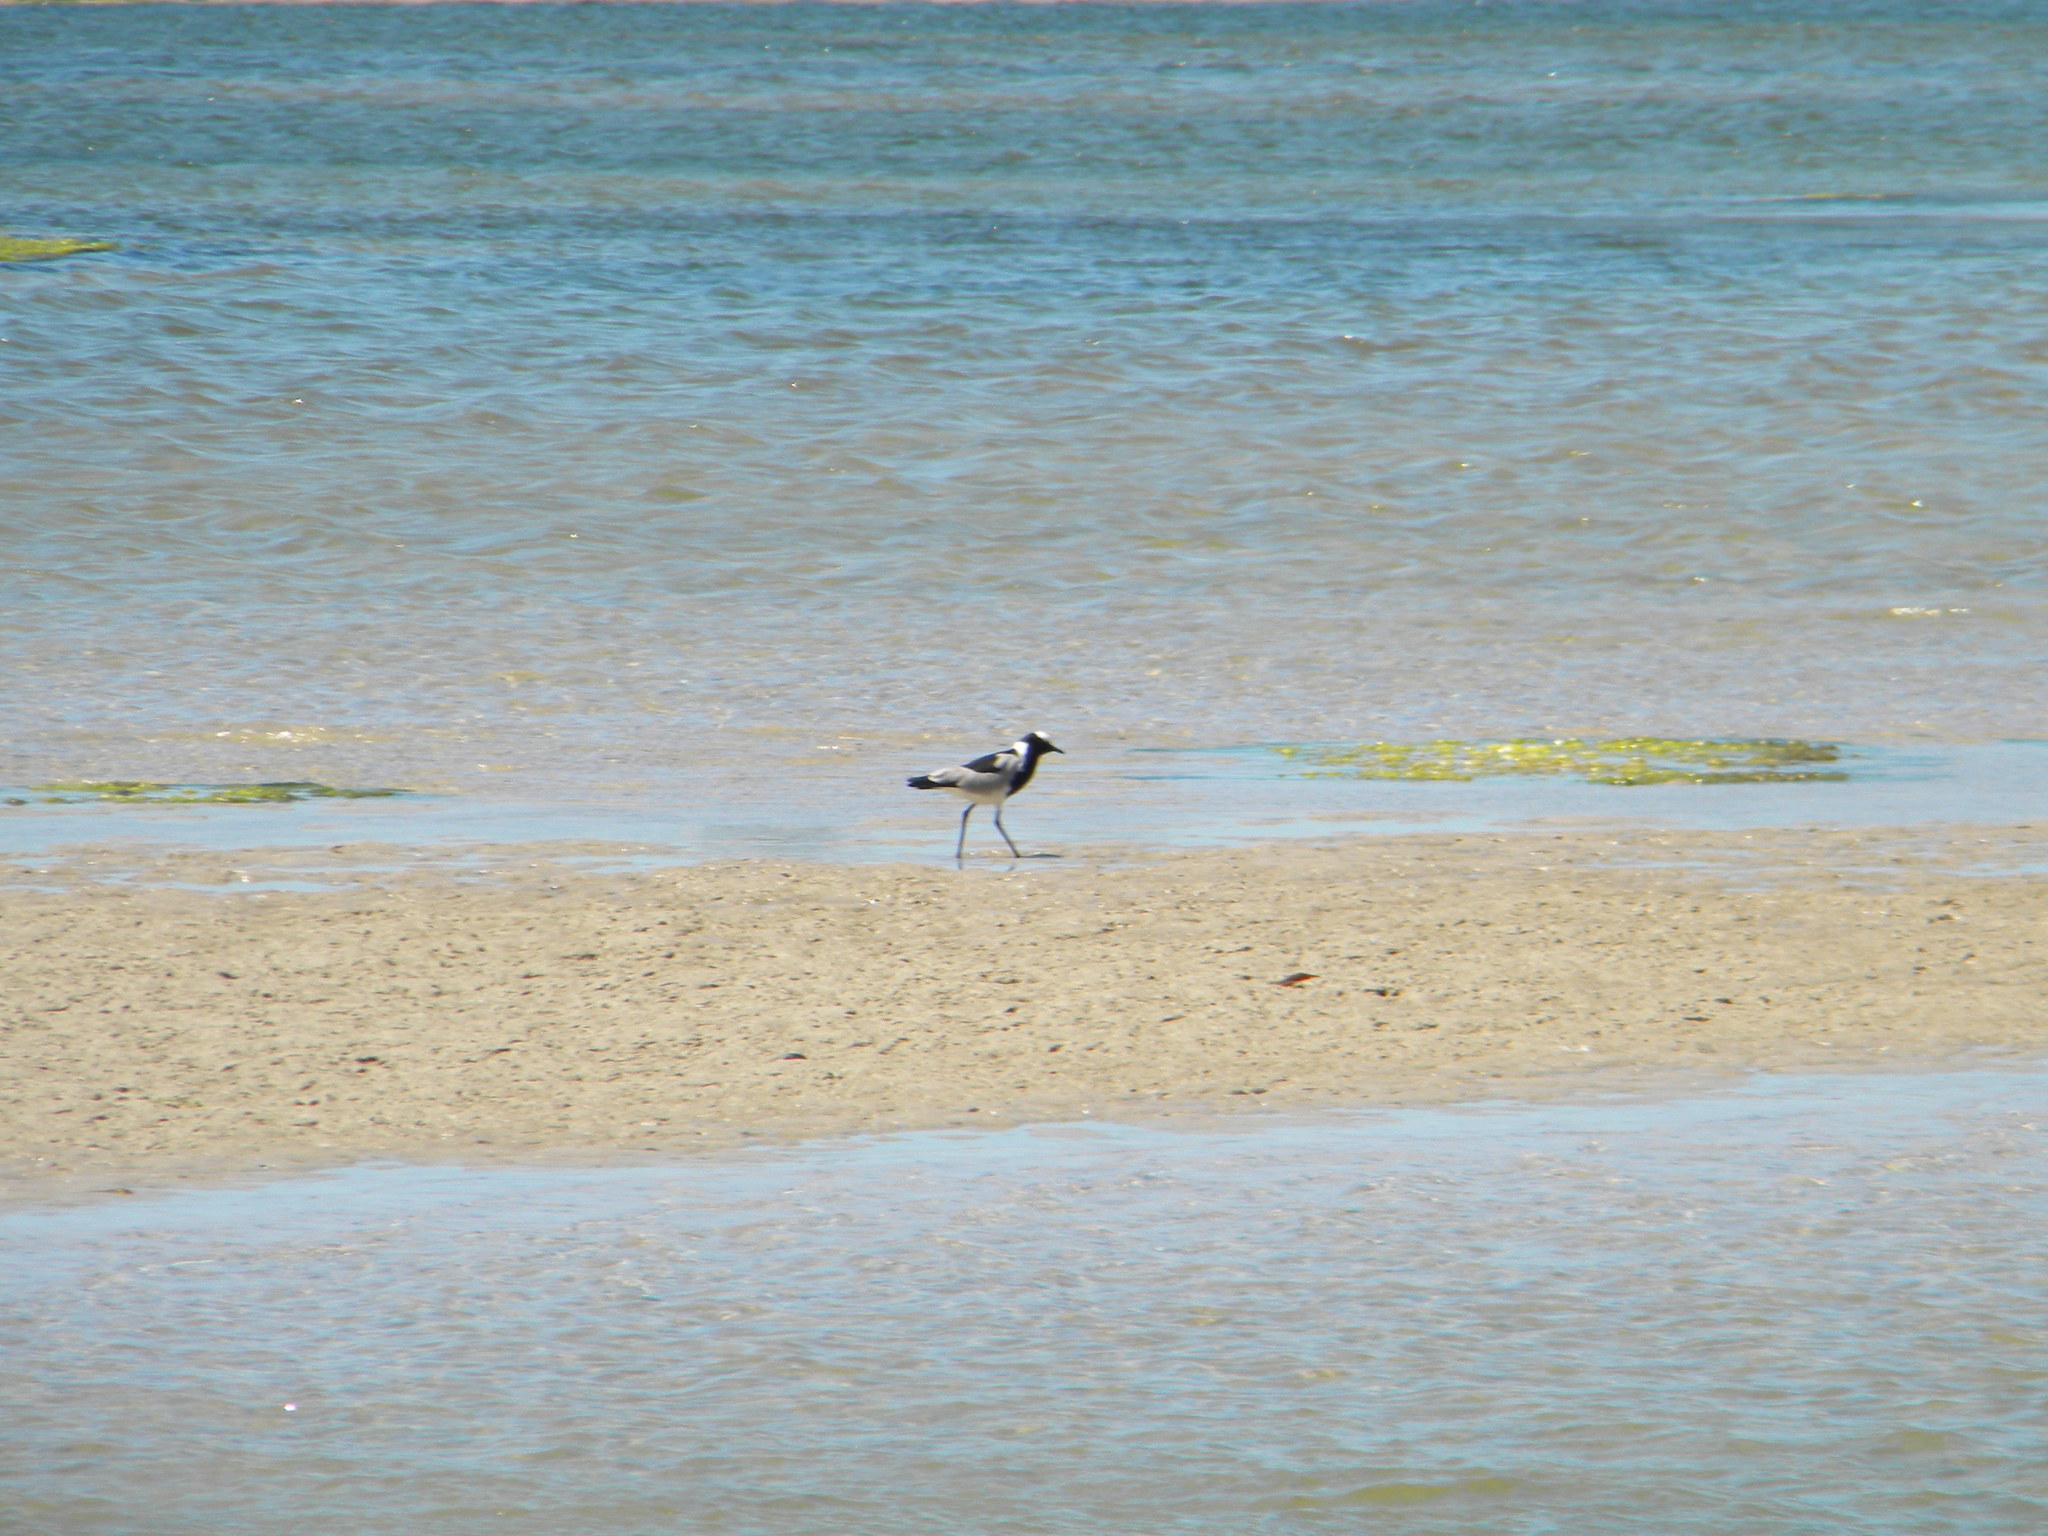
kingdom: Animalia
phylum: Chordata
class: Aves
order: Charadriiformes
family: Charadriidae
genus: Vanellus
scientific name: Vanellus armatus
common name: Blacksmith lapwing
